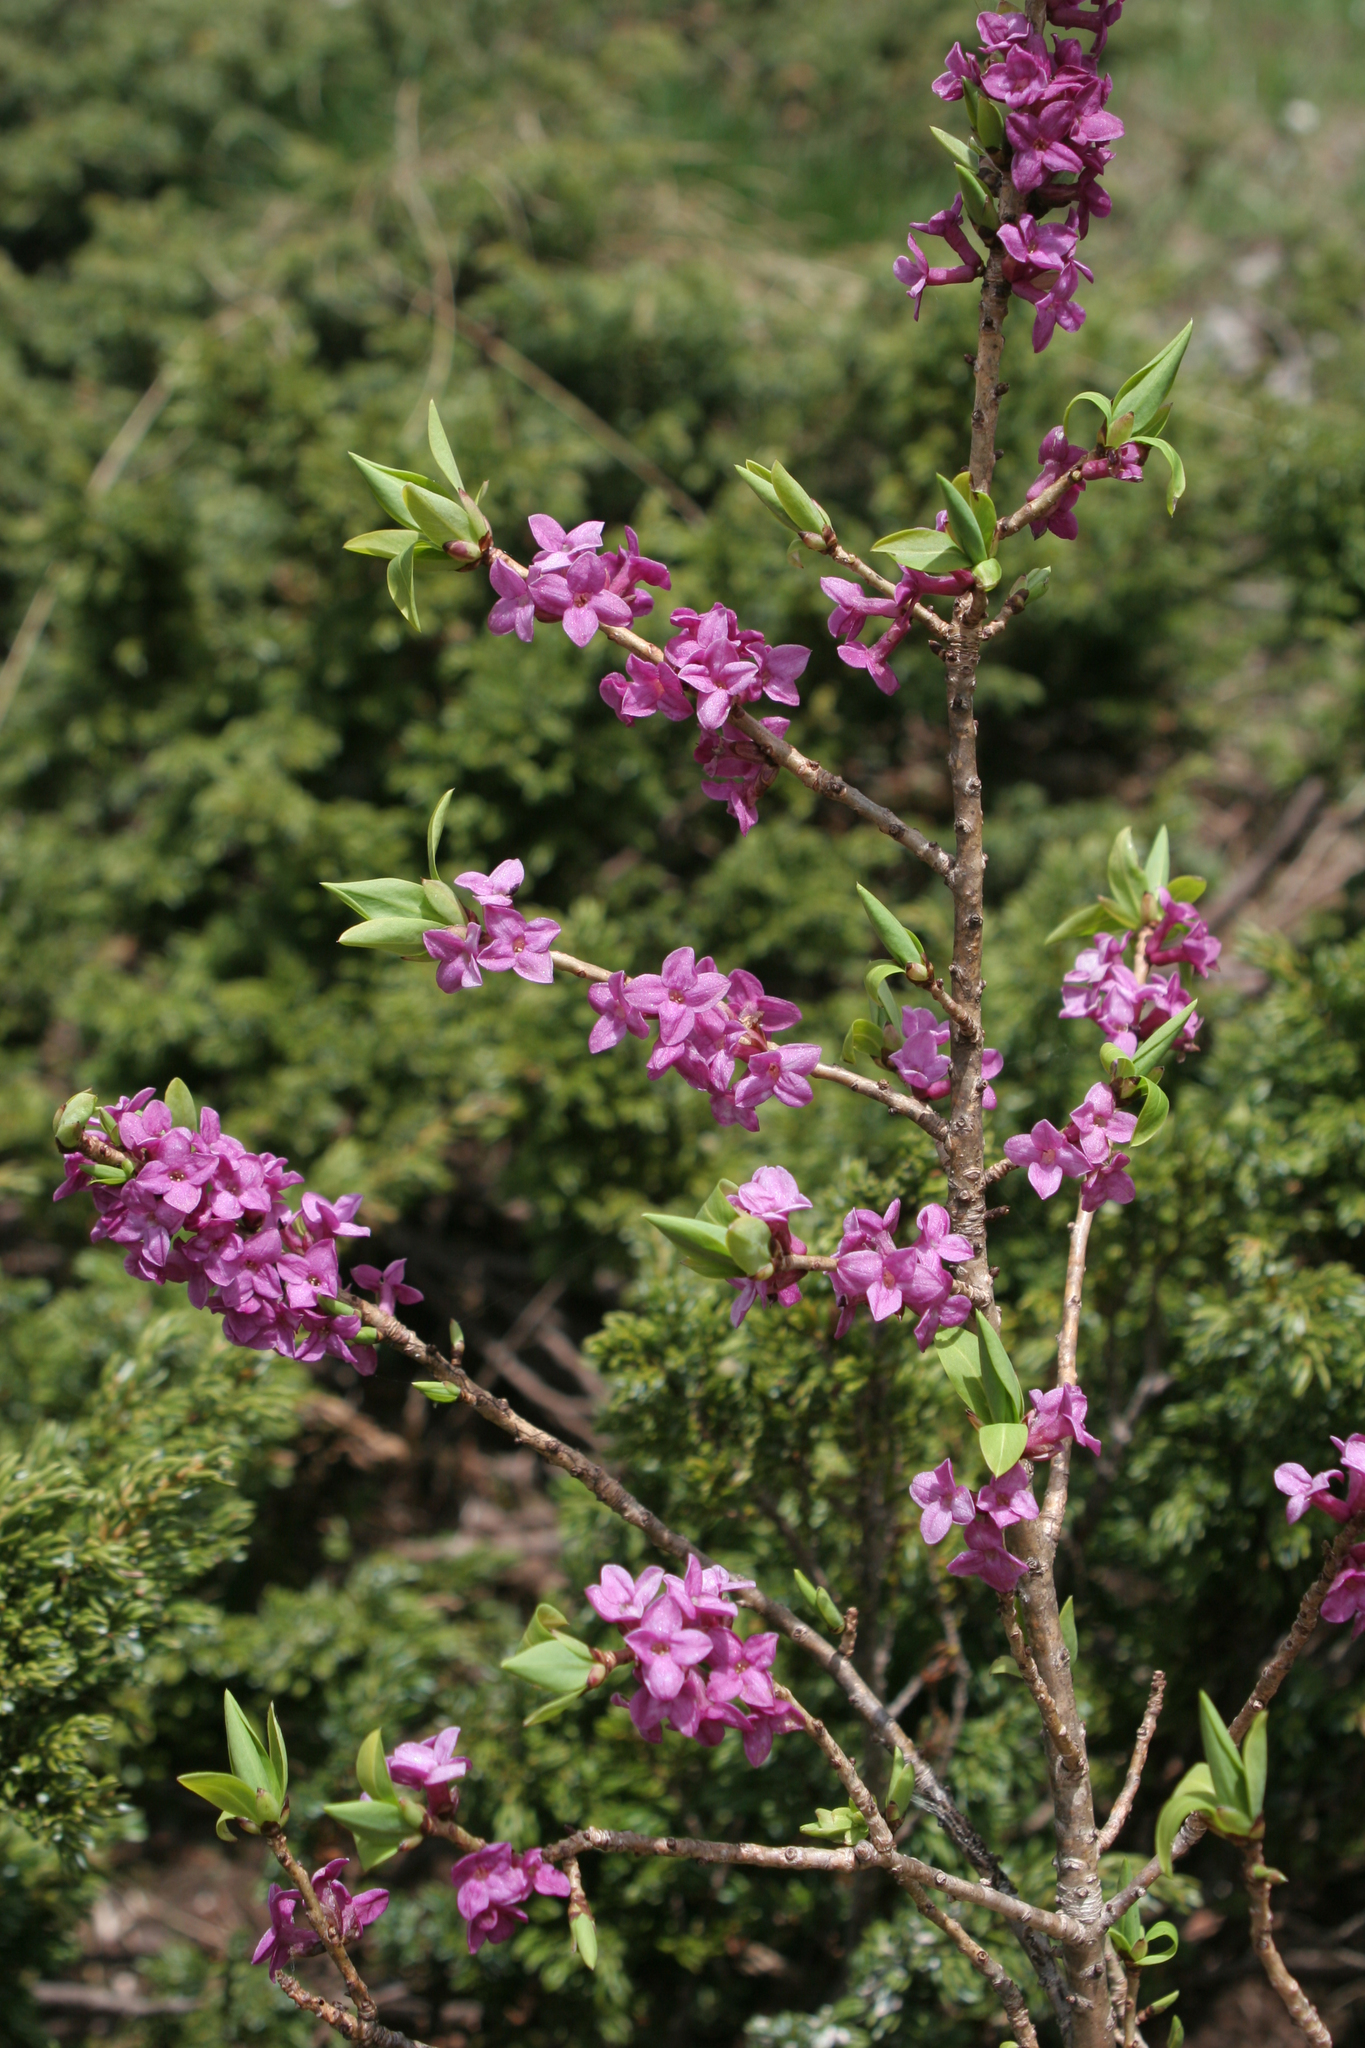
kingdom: Plantae
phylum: Tracheophyta
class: Magnoliopsida
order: Malvales
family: Thymelaeaceae
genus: Daphne
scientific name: Daphne mezereum
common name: Mezereon
